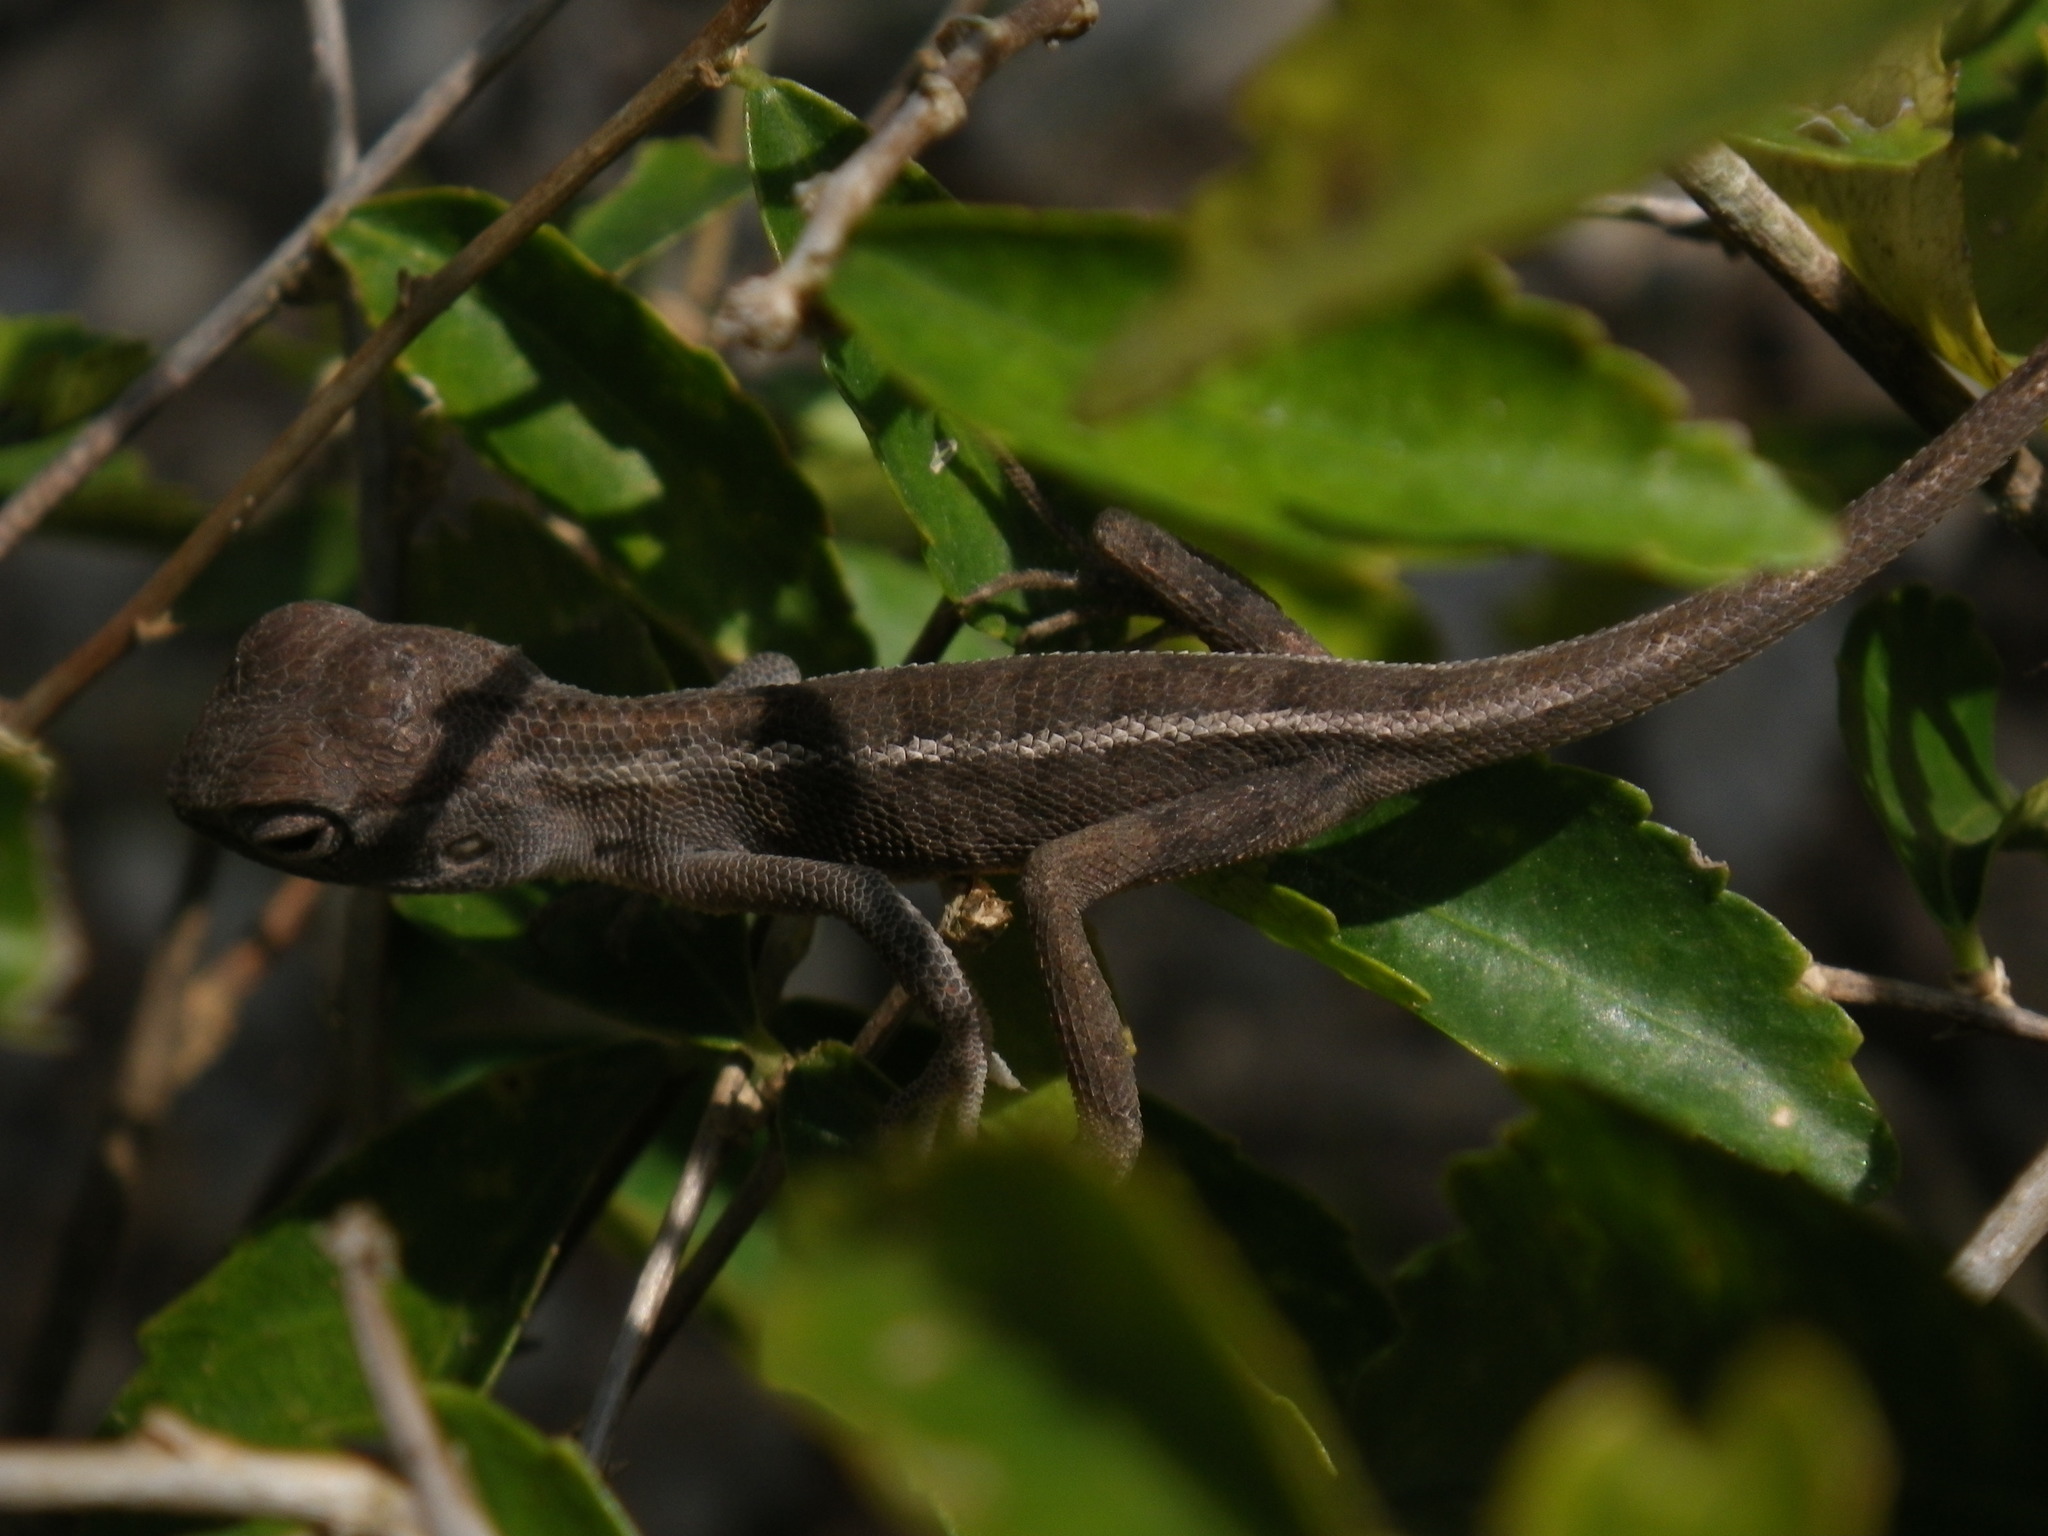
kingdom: Animalia
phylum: Chordata
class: Squamata
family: Agamidae
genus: Calotes
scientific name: Calotes versicolor
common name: Oriental garden lizard
